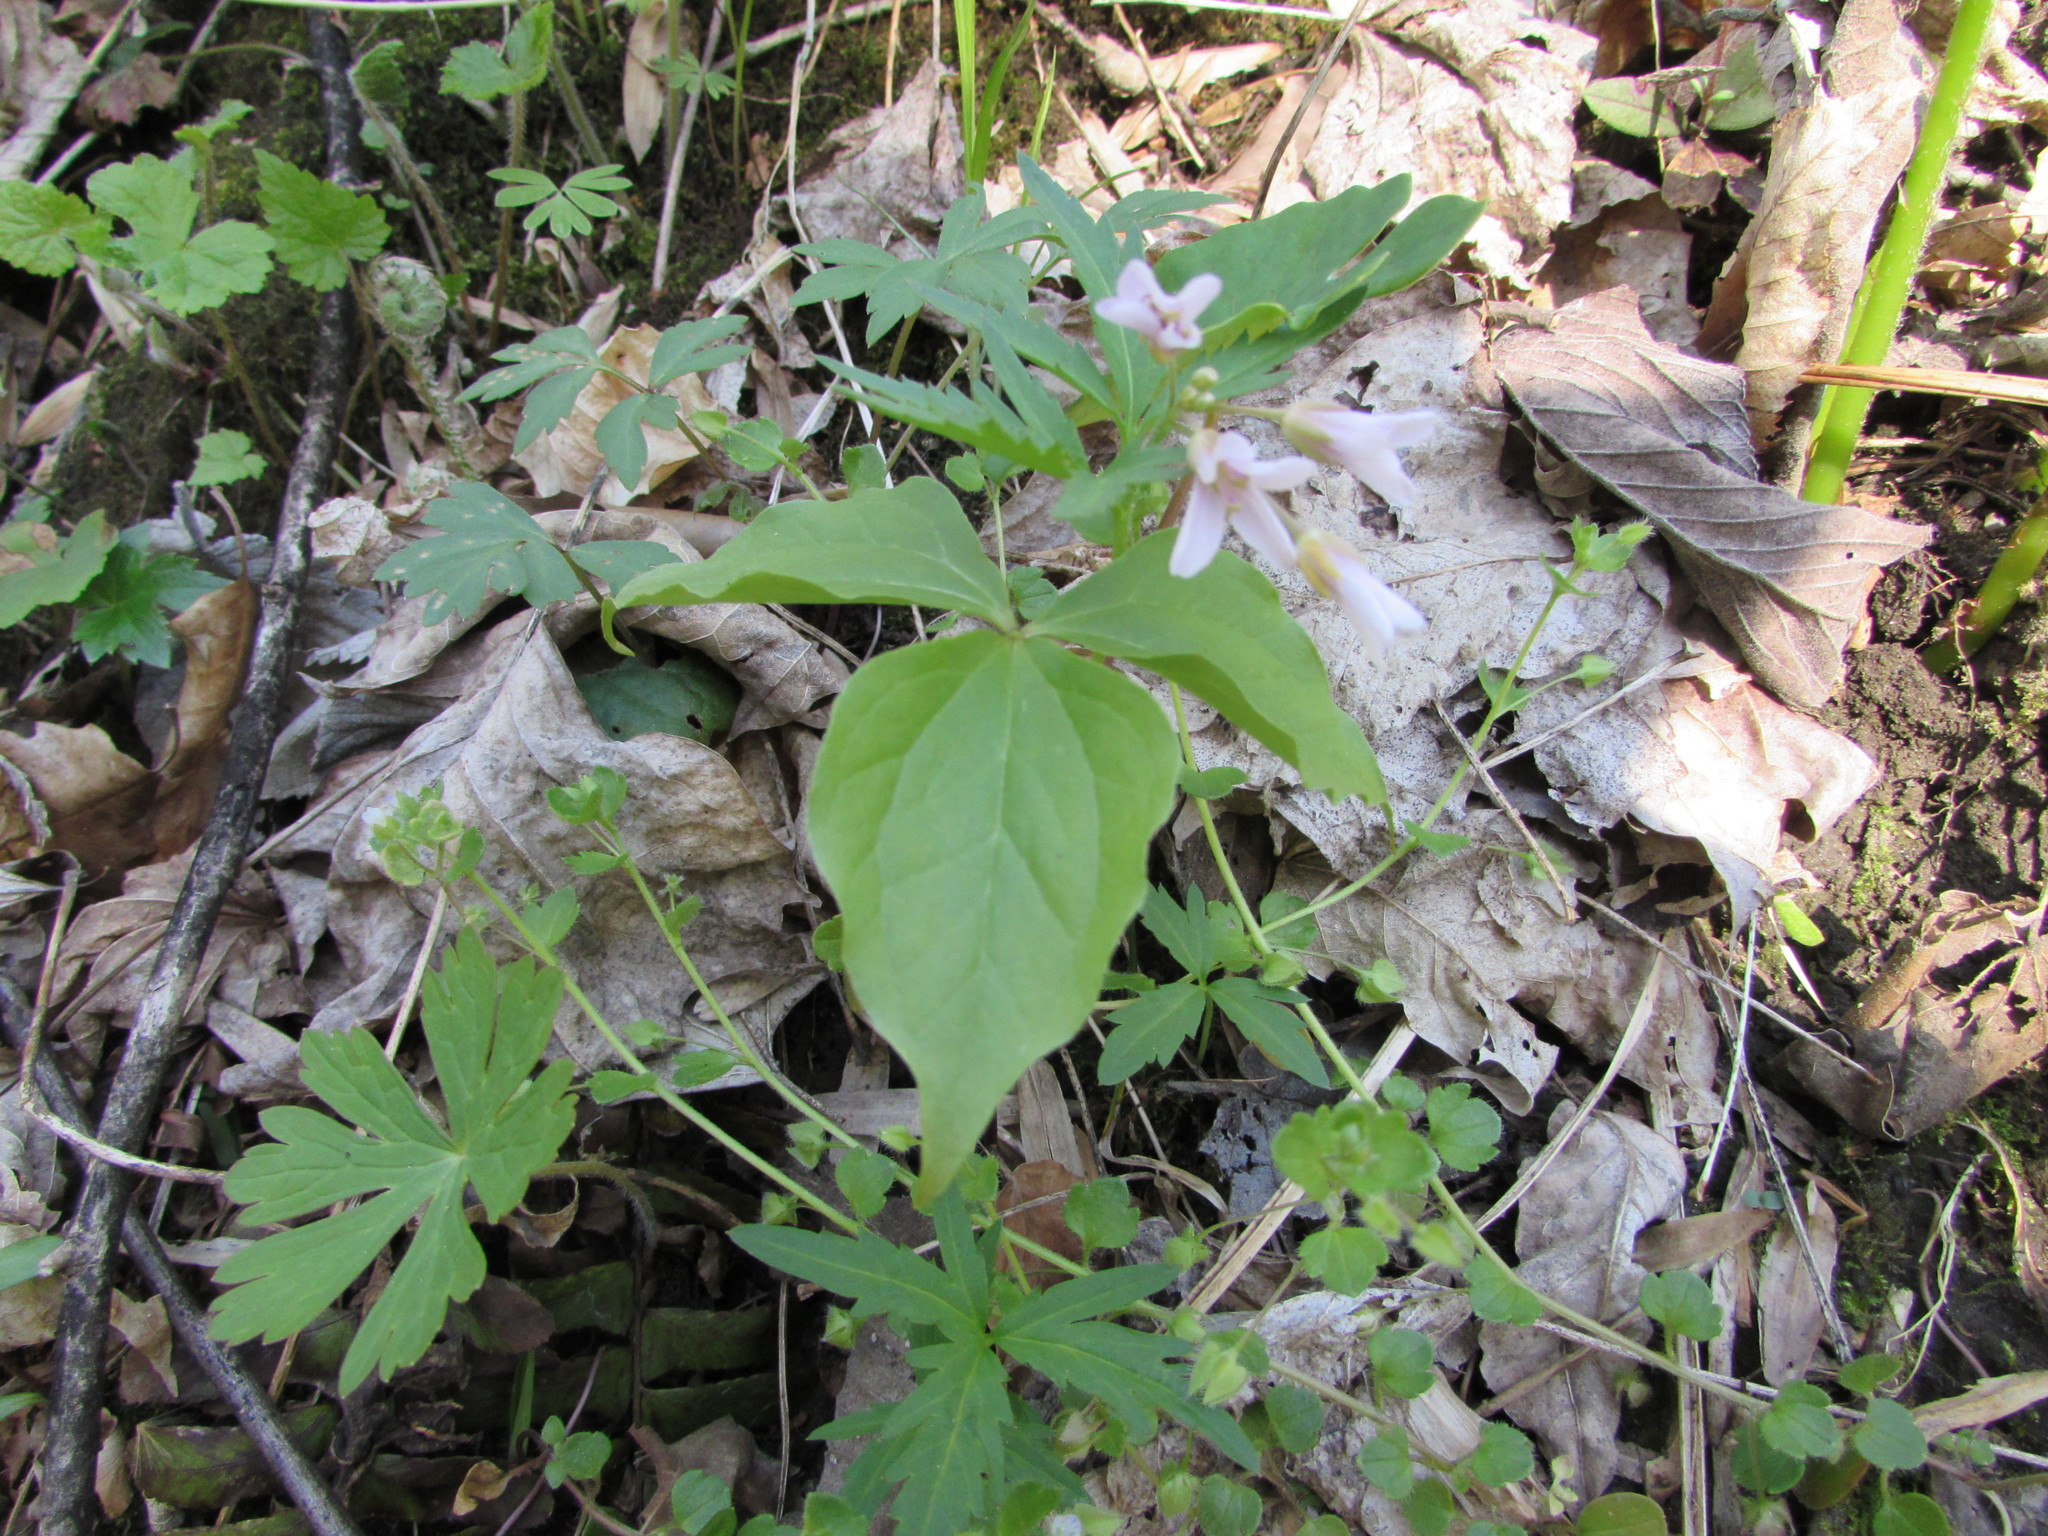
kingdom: Plantae
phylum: Tracheophyta
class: Magnoliopsida
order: Brassicales
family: Brassicaceae
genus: Cardamine
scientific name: Cardamine concatenata
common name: Cut-leaf toothcup
